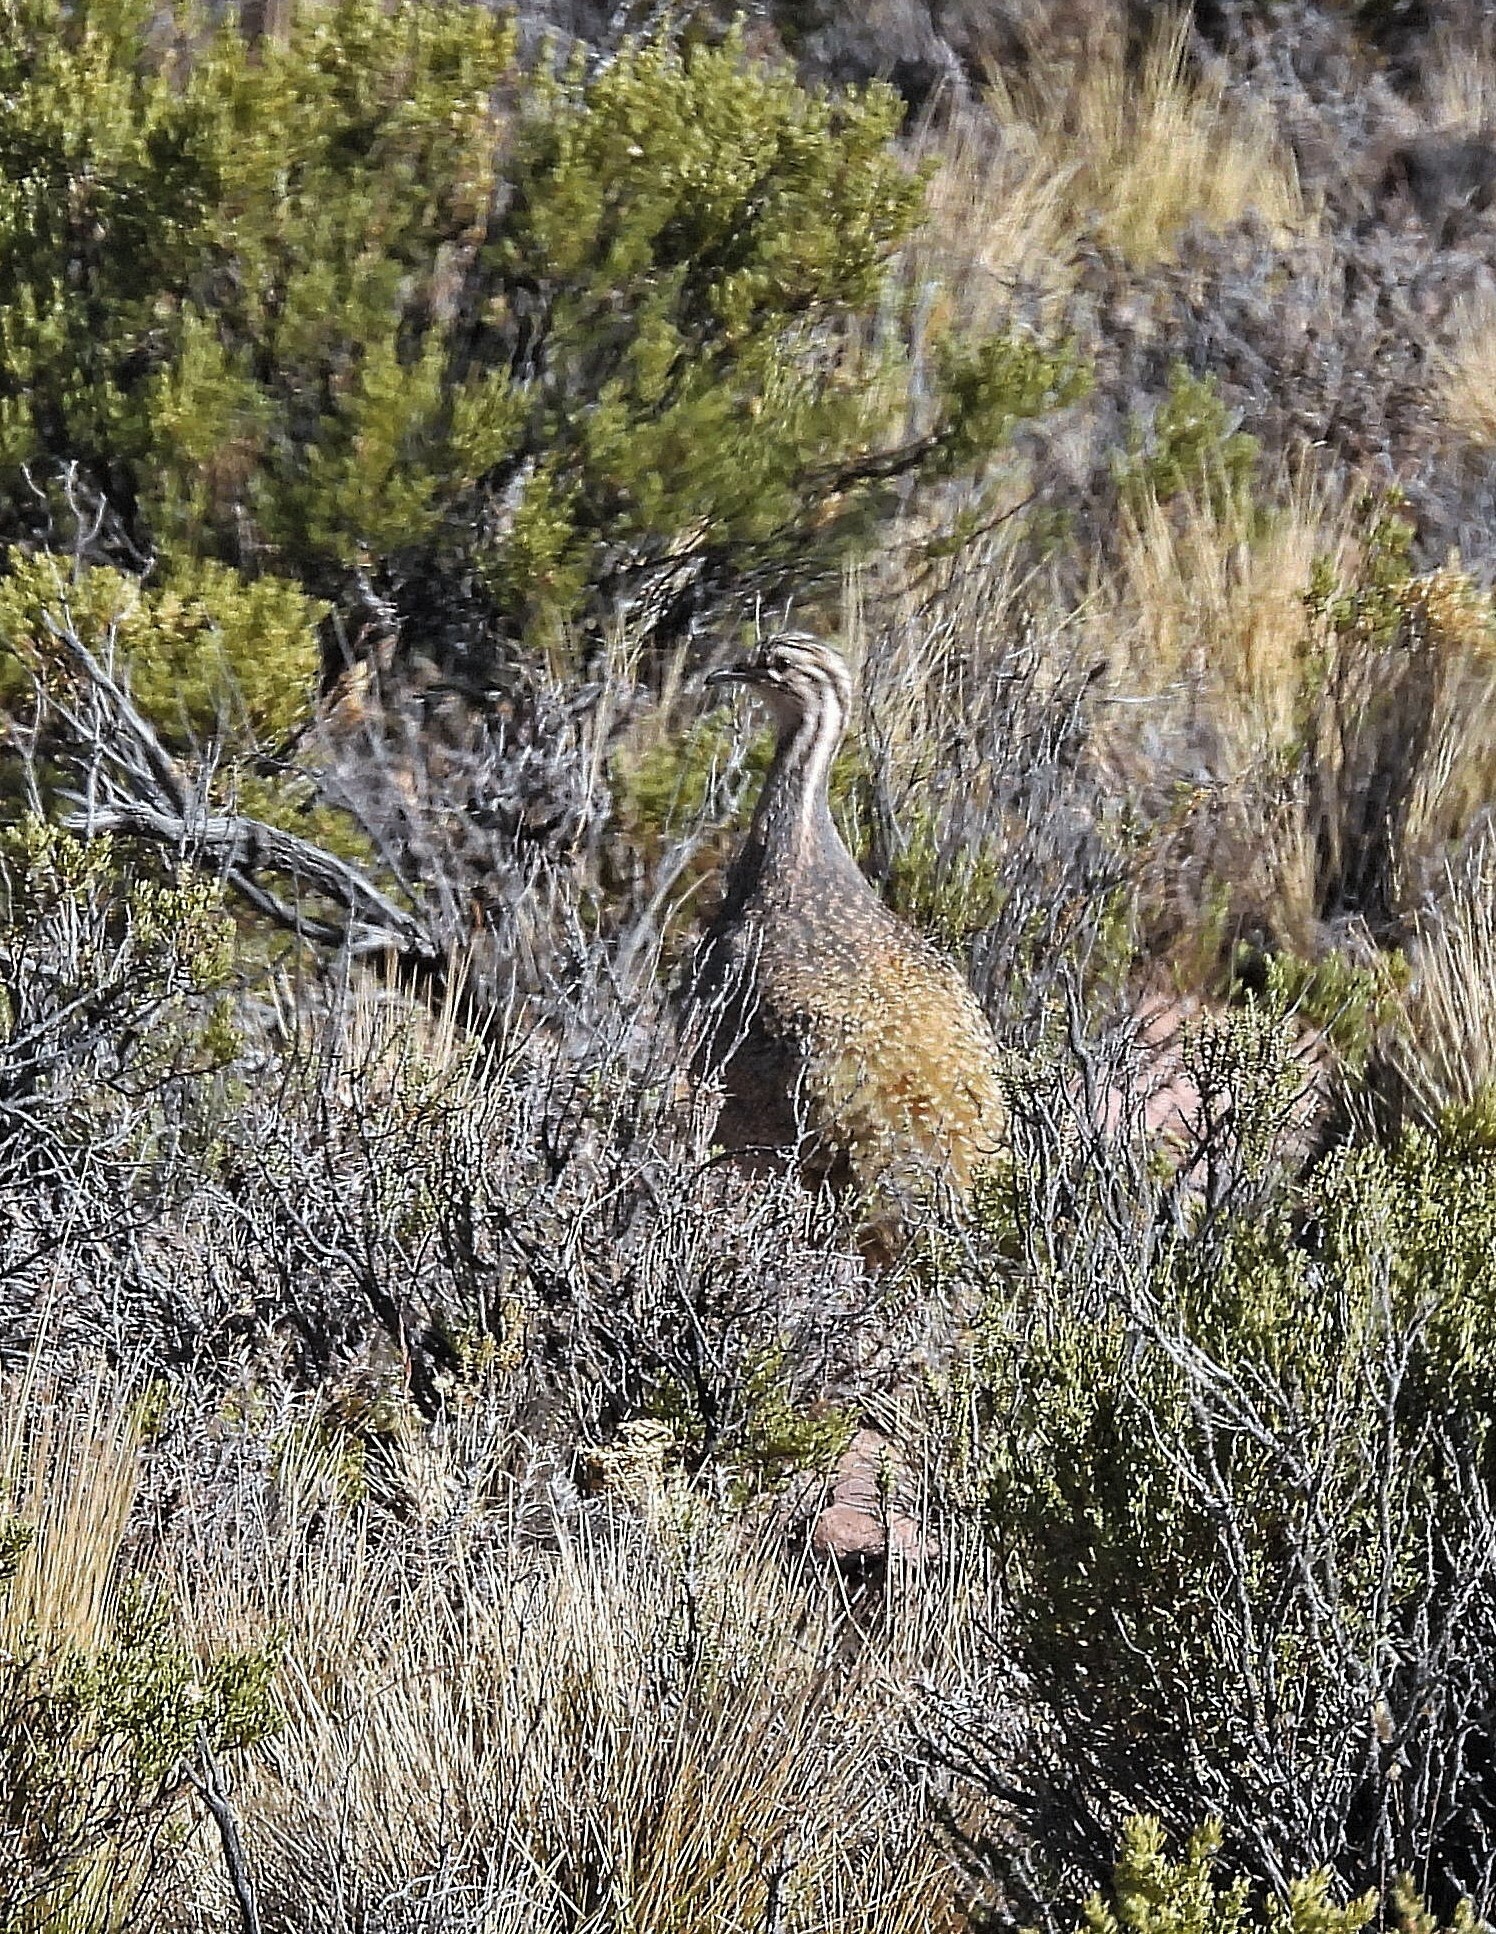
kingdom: Animalia
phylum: Chordata
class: Aves
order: Tinamiformes
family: Tinamidae
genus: Tinamotis
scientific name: Tinamotis pentlandii
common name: Puna tinamou
